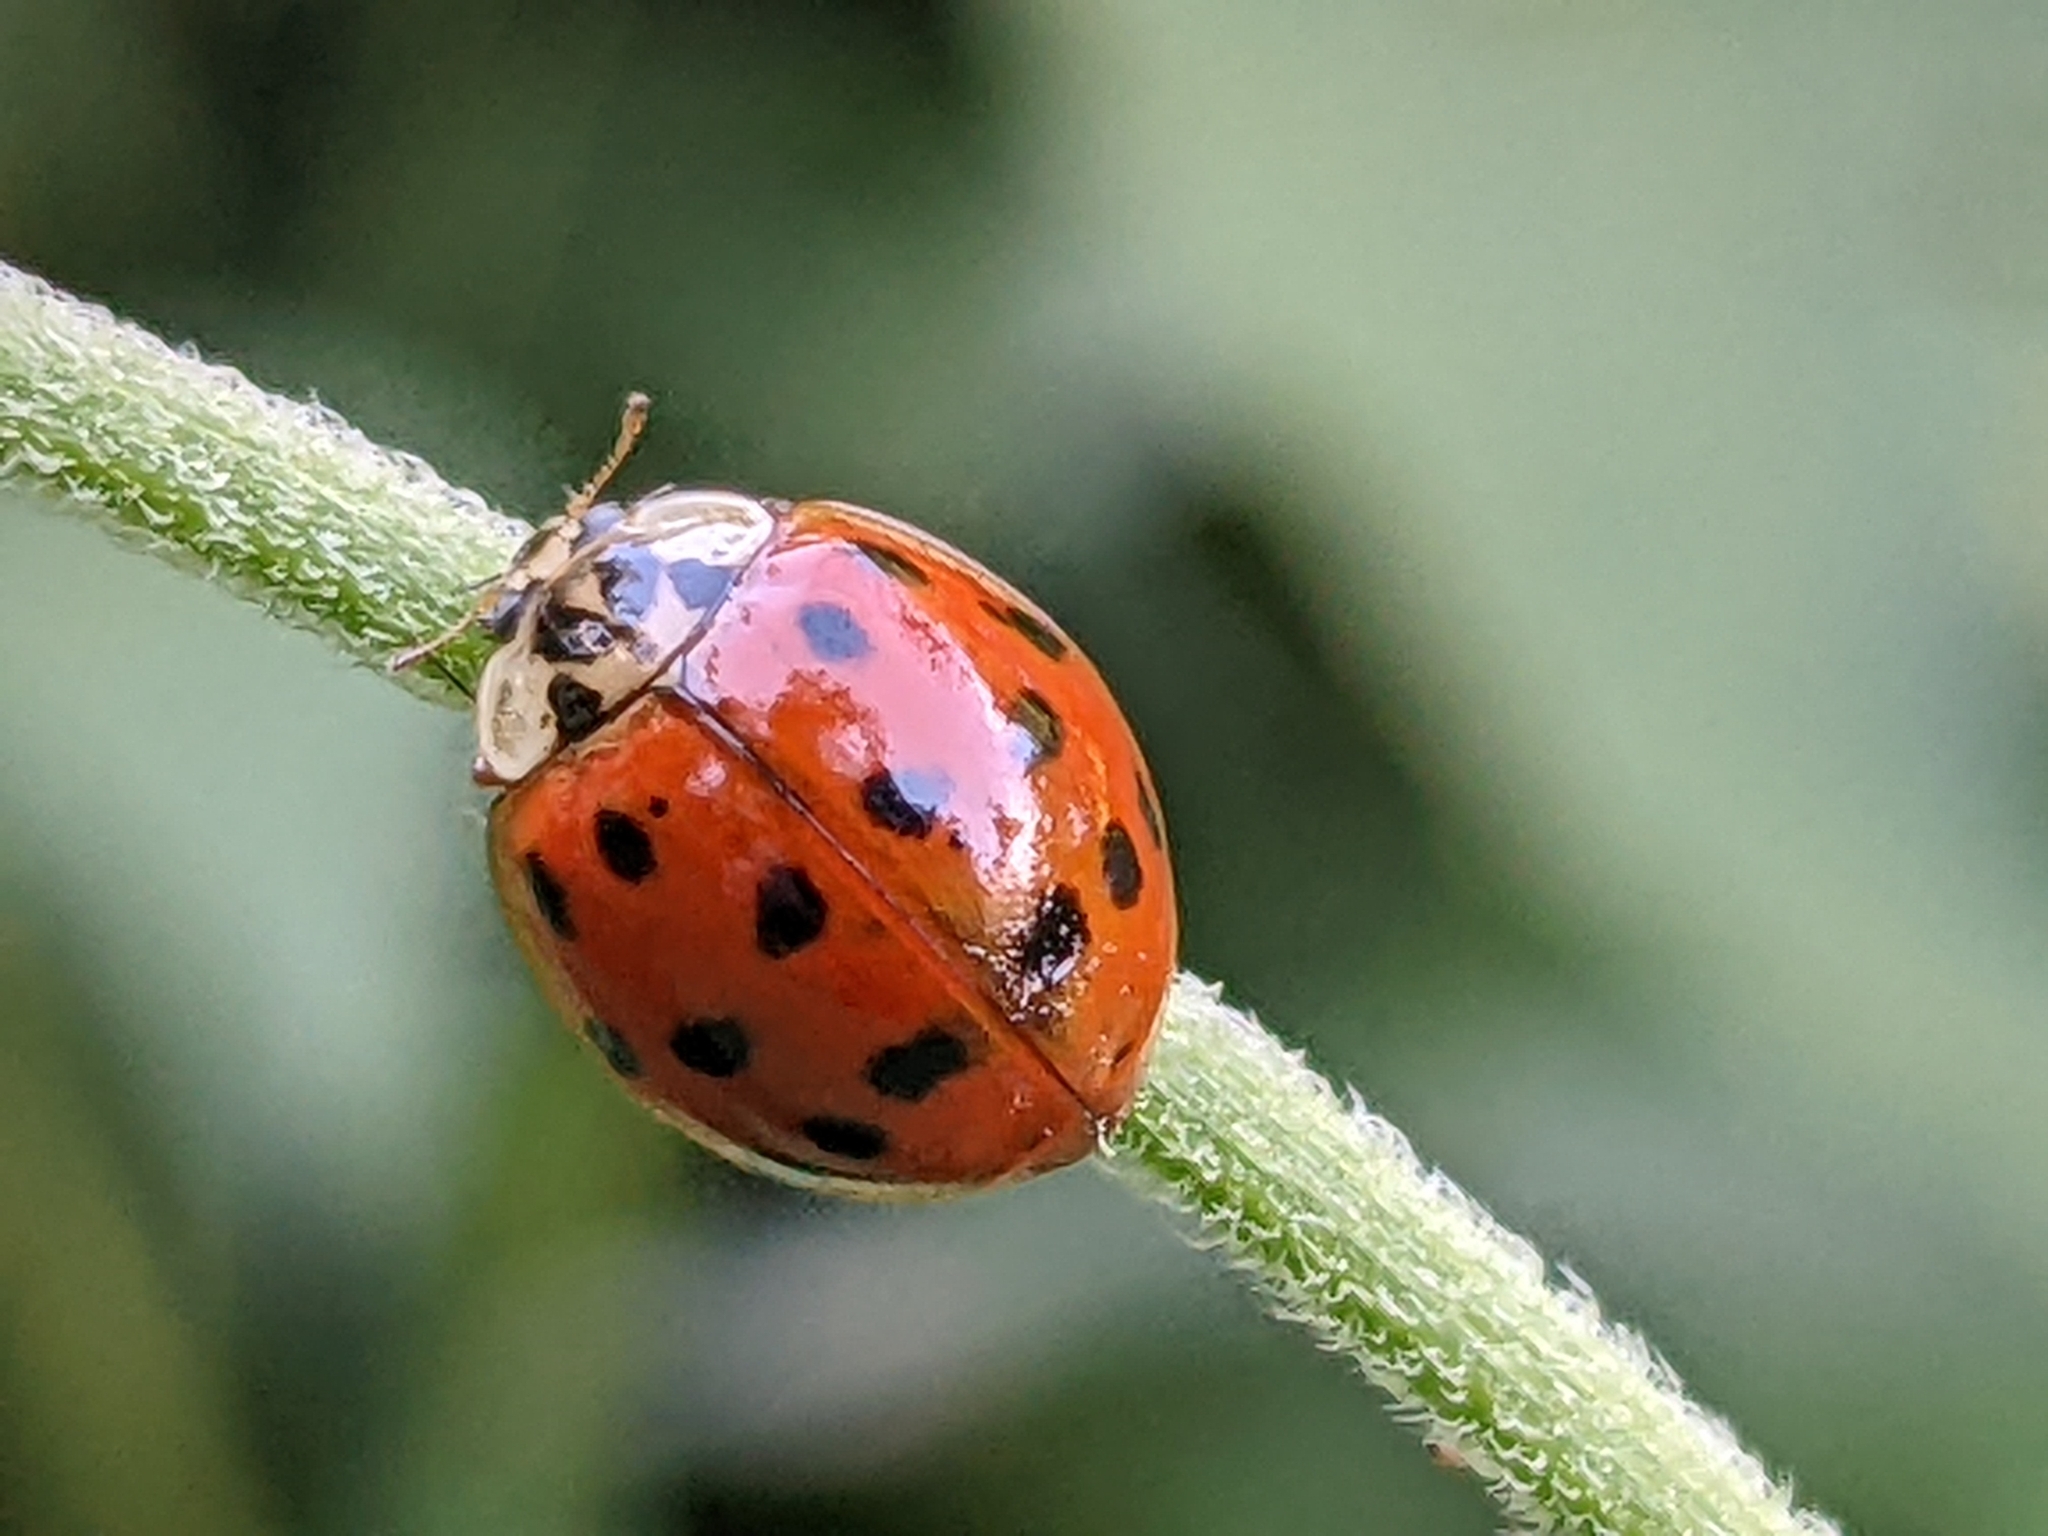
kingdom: Fungi
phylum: Ascomycota
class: Laboulbeniomycetes
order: Laboulbeniales
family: Laboulbeniaceae
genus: Hesperomyces
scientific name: Hesperomyces harmoniae
